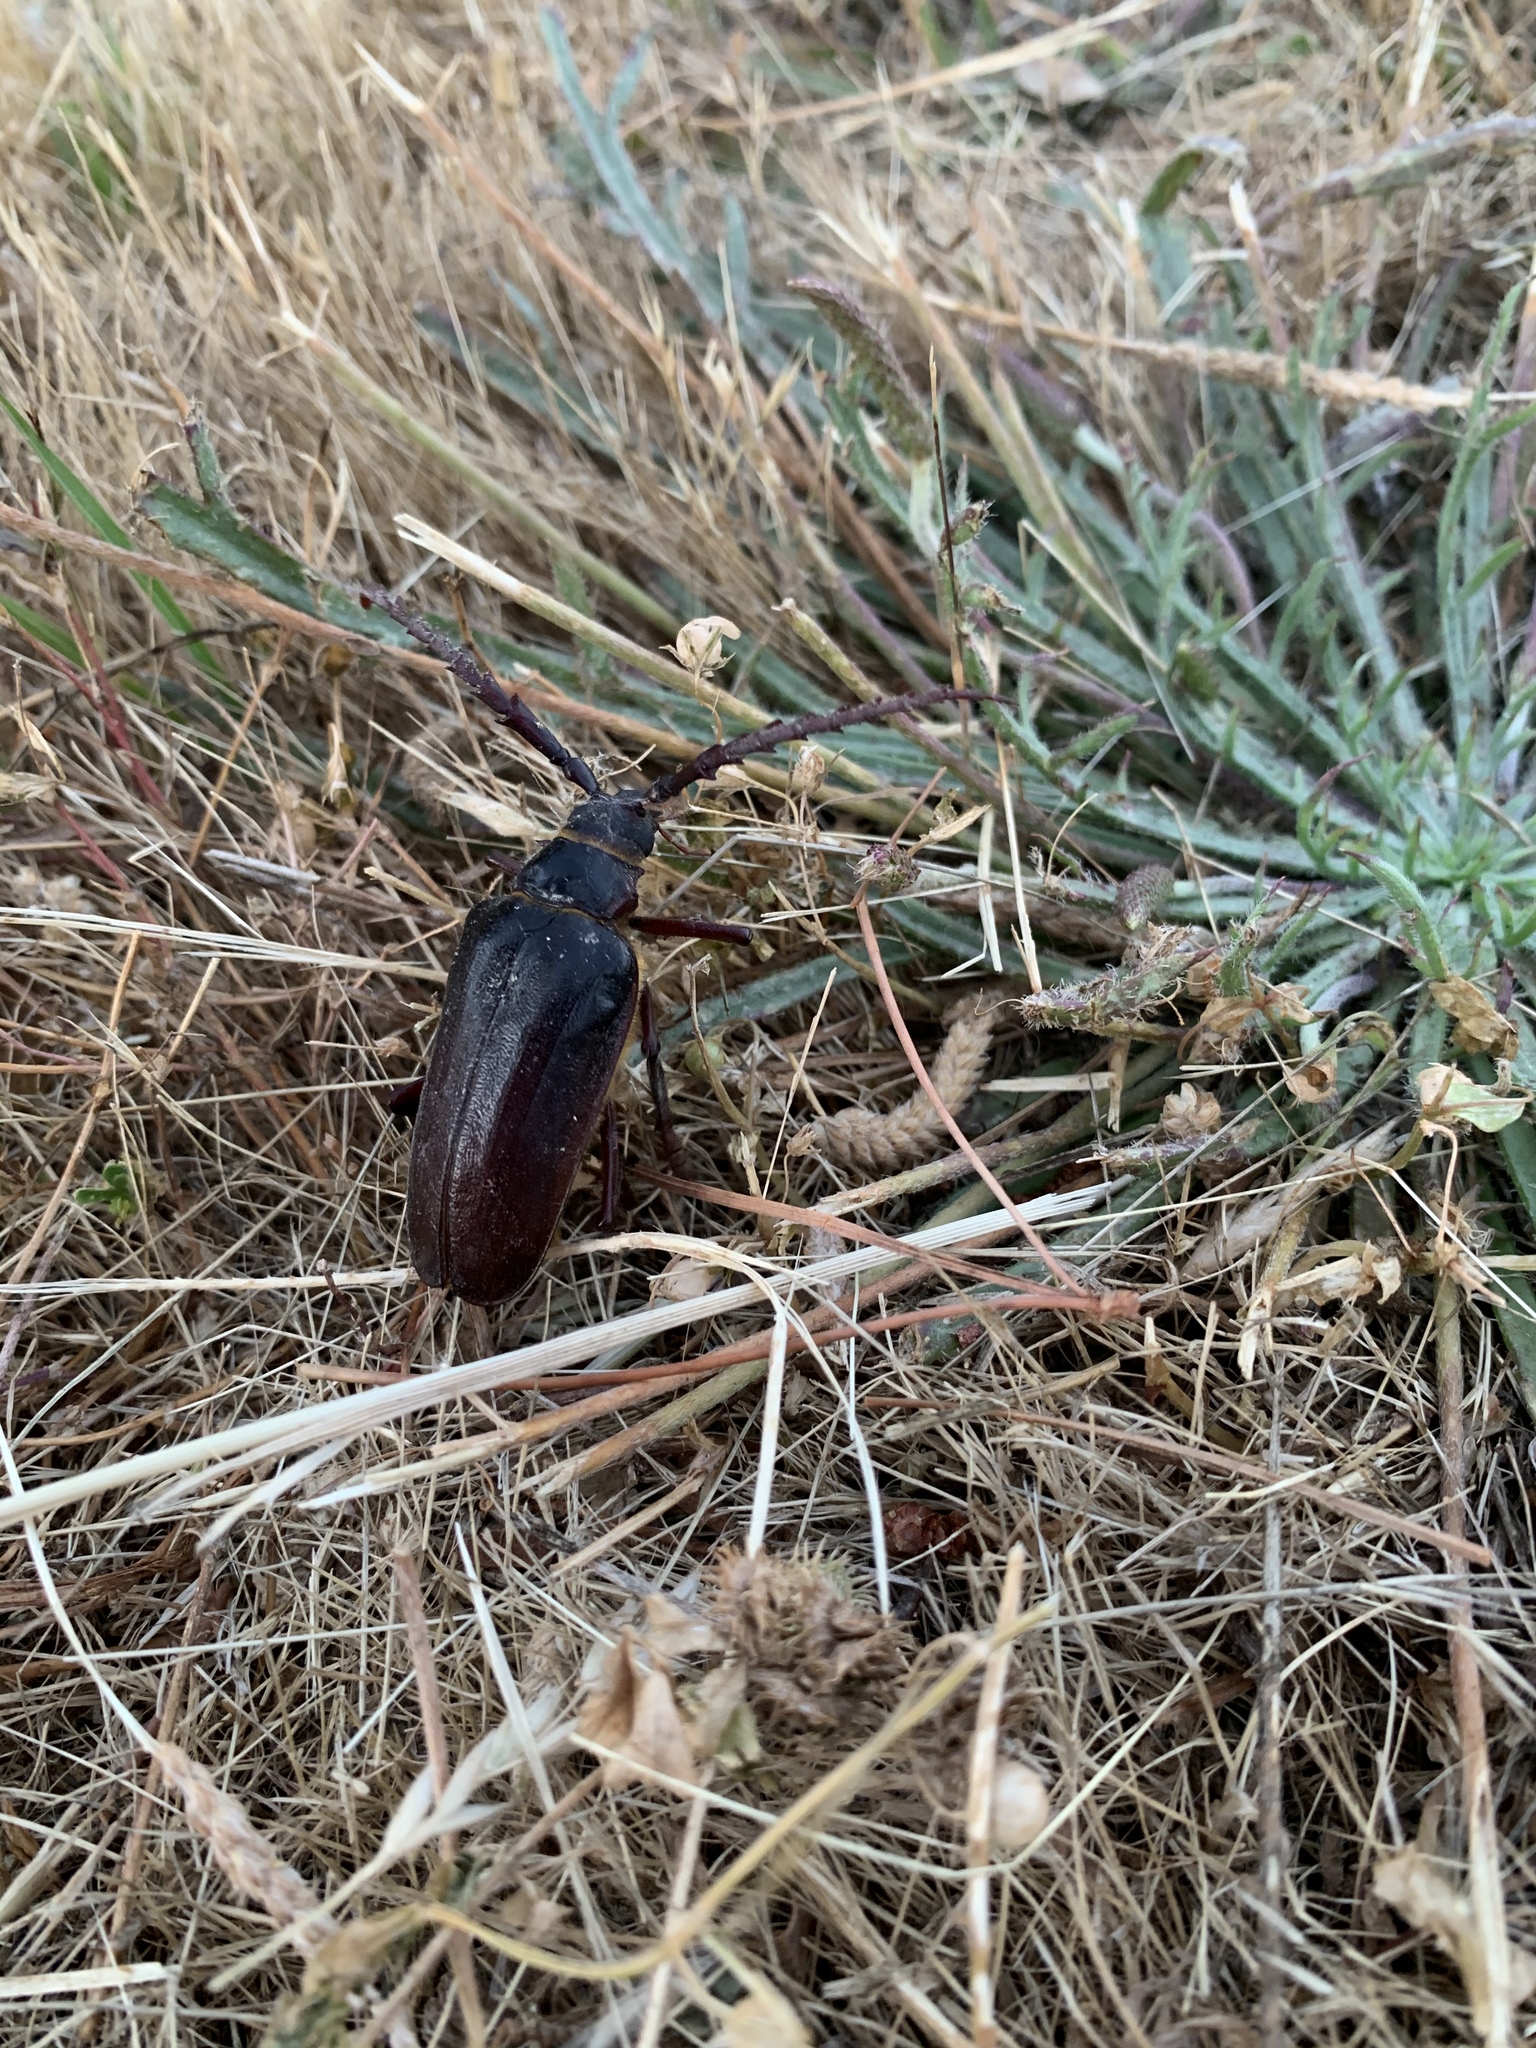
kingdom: Animalia
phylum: Arthropoda
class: Insecta
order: Coleoptera
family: Cerambycidae
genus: Prionus
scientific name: Prionus californicus
